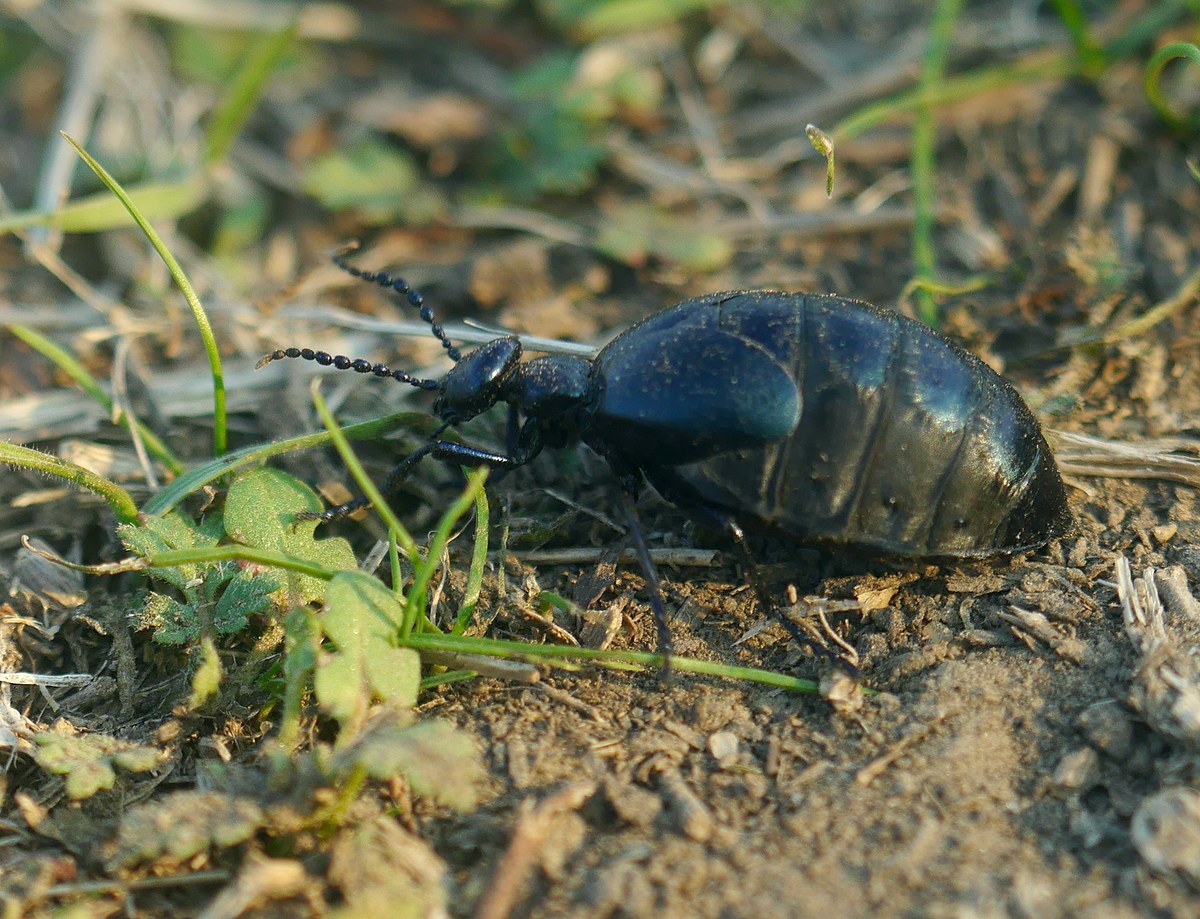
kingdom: Animalia
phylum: Arthropoda
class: Insecta
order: Coleoptera
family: Meloidae
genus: Meloe
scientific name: Meloe autumnalis
